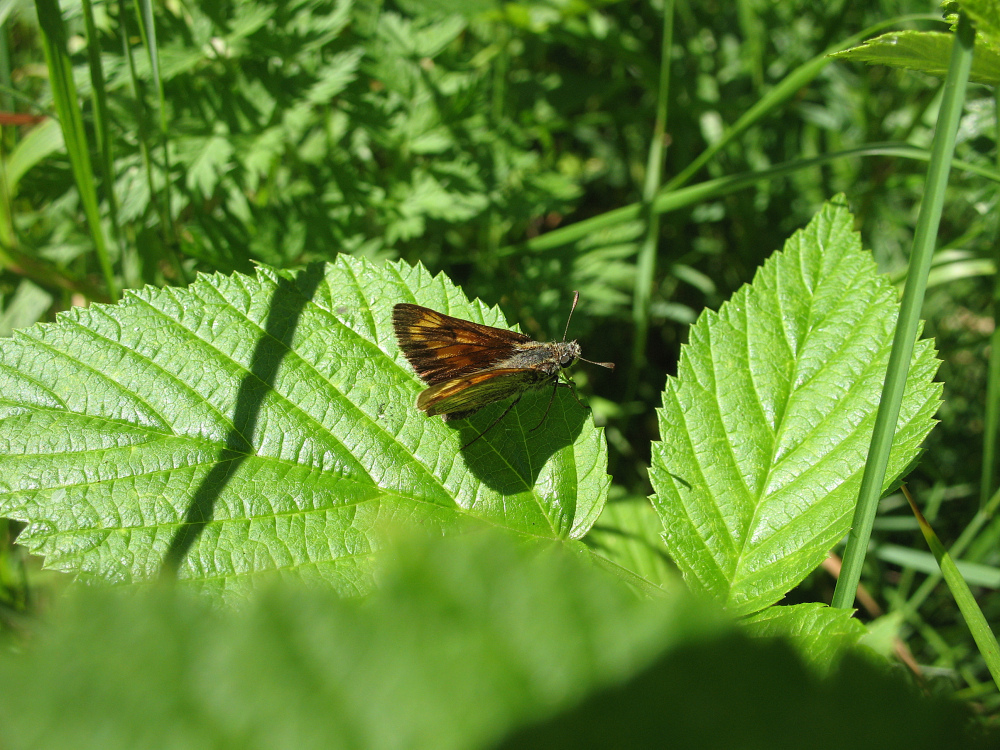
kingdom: Animalia
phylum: Arthropoda
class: Insecta
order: Lepidoptera
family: Hesperiidae
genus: Ochlodes
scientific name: Ochlodes venata
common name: Large skipper
